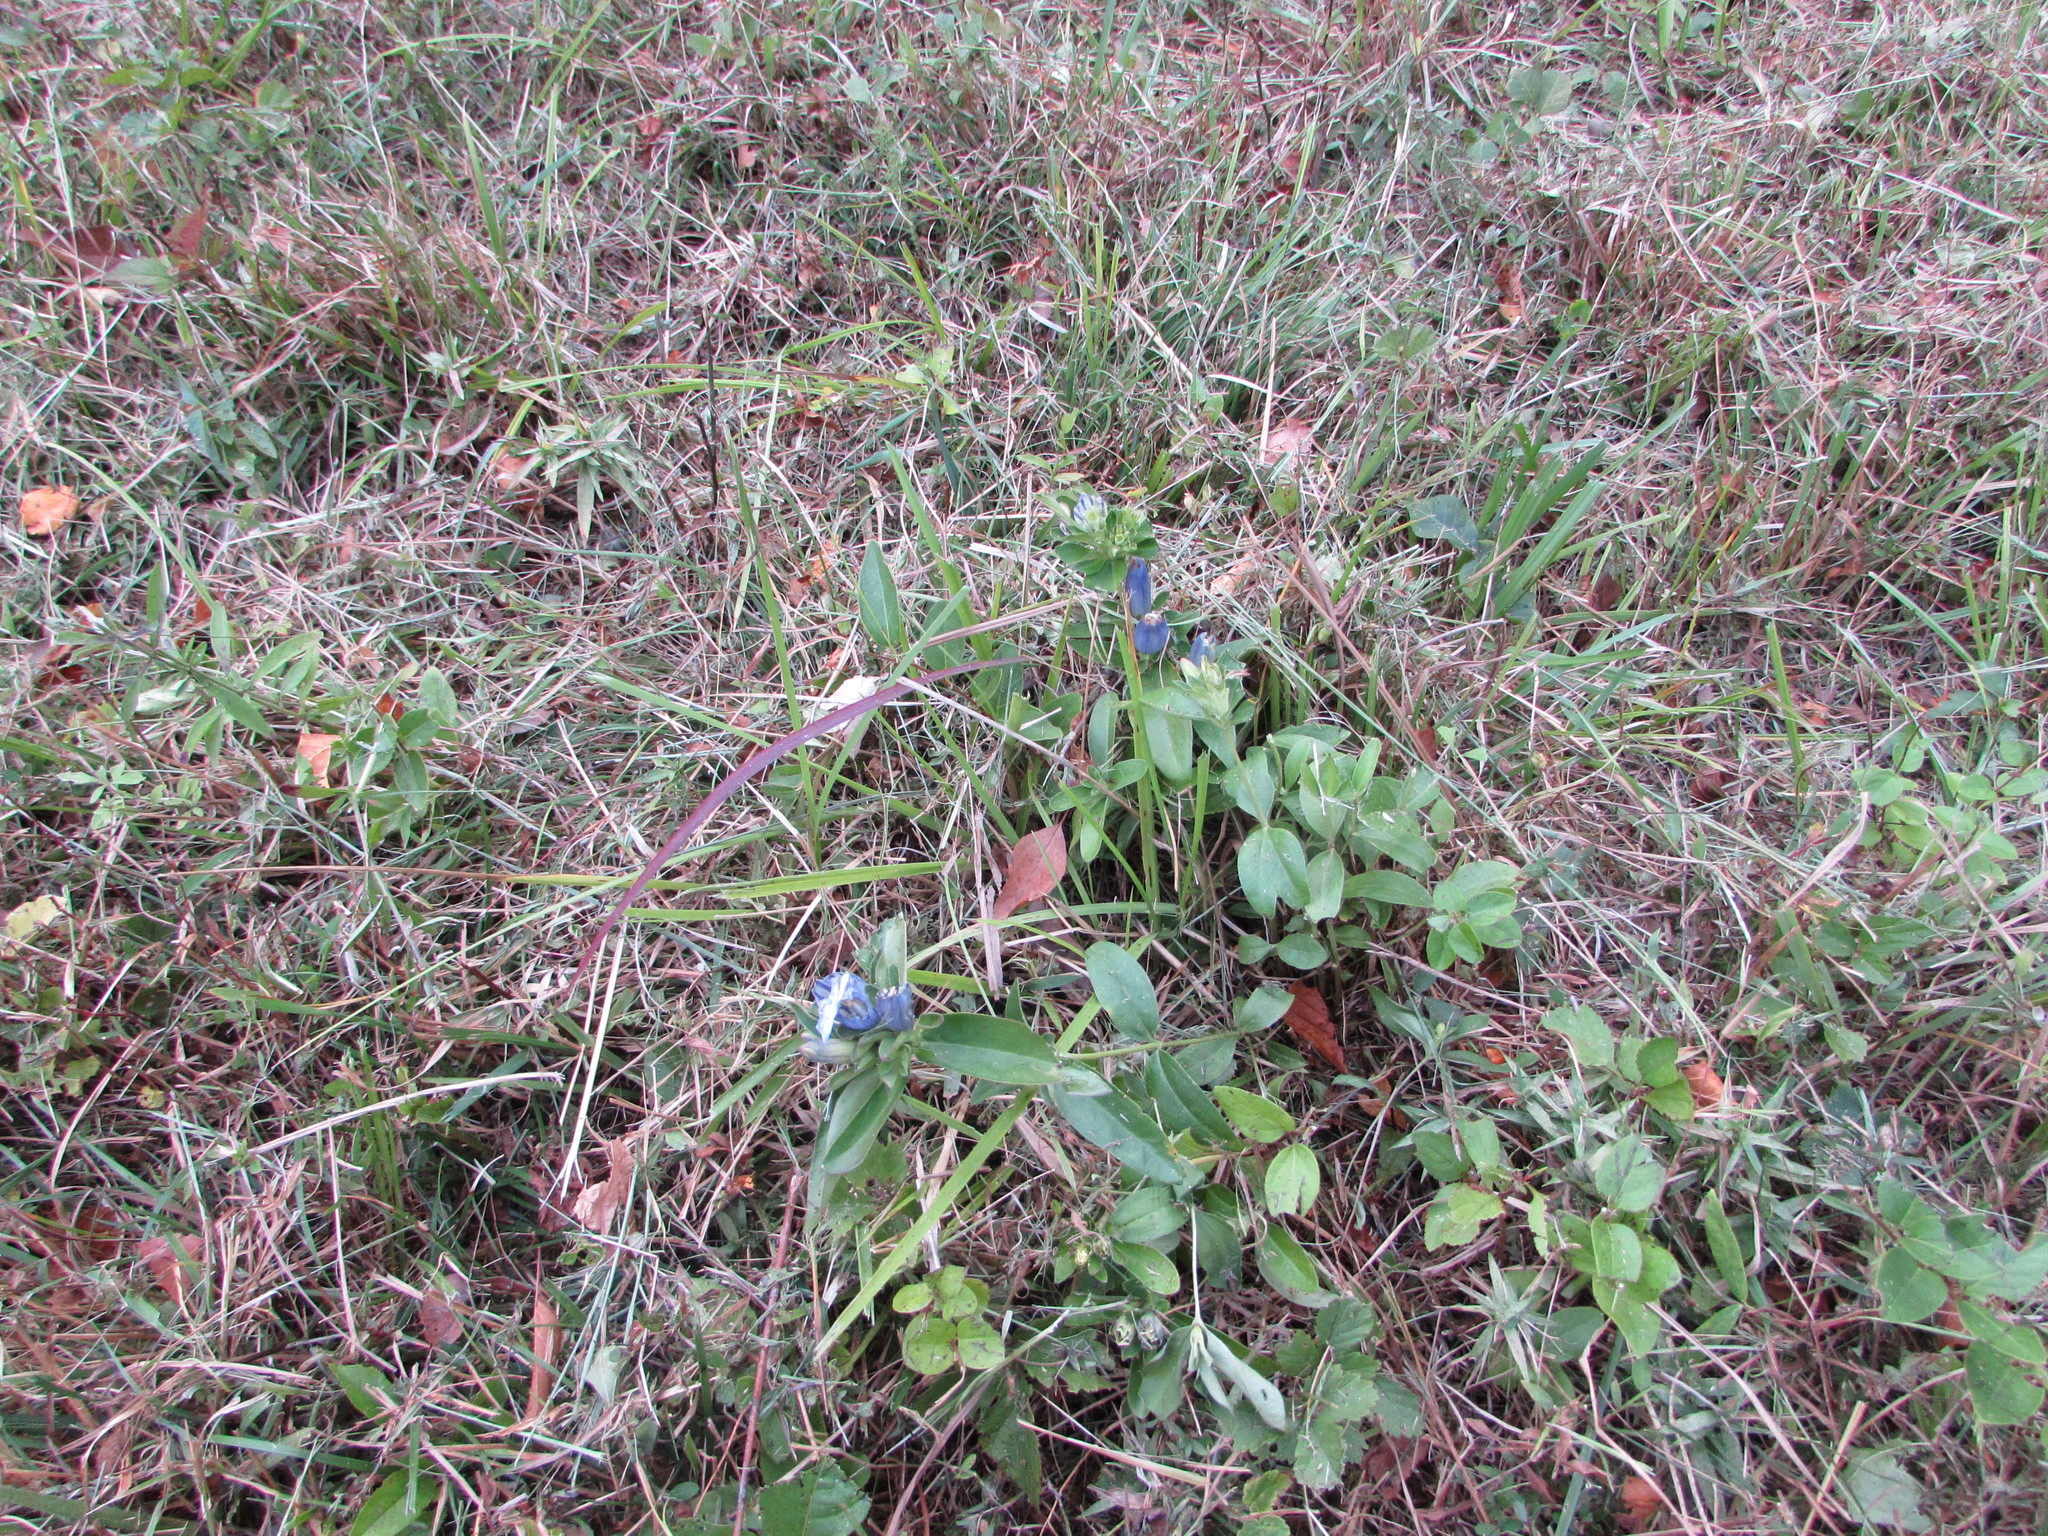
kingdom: Plantae
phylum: Tracheophyta
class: Magnoliopsida
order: Gentianales
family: Gentianaceae
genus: Gentiana
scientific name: Gentiana saponaria
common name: Soapwort gentian
